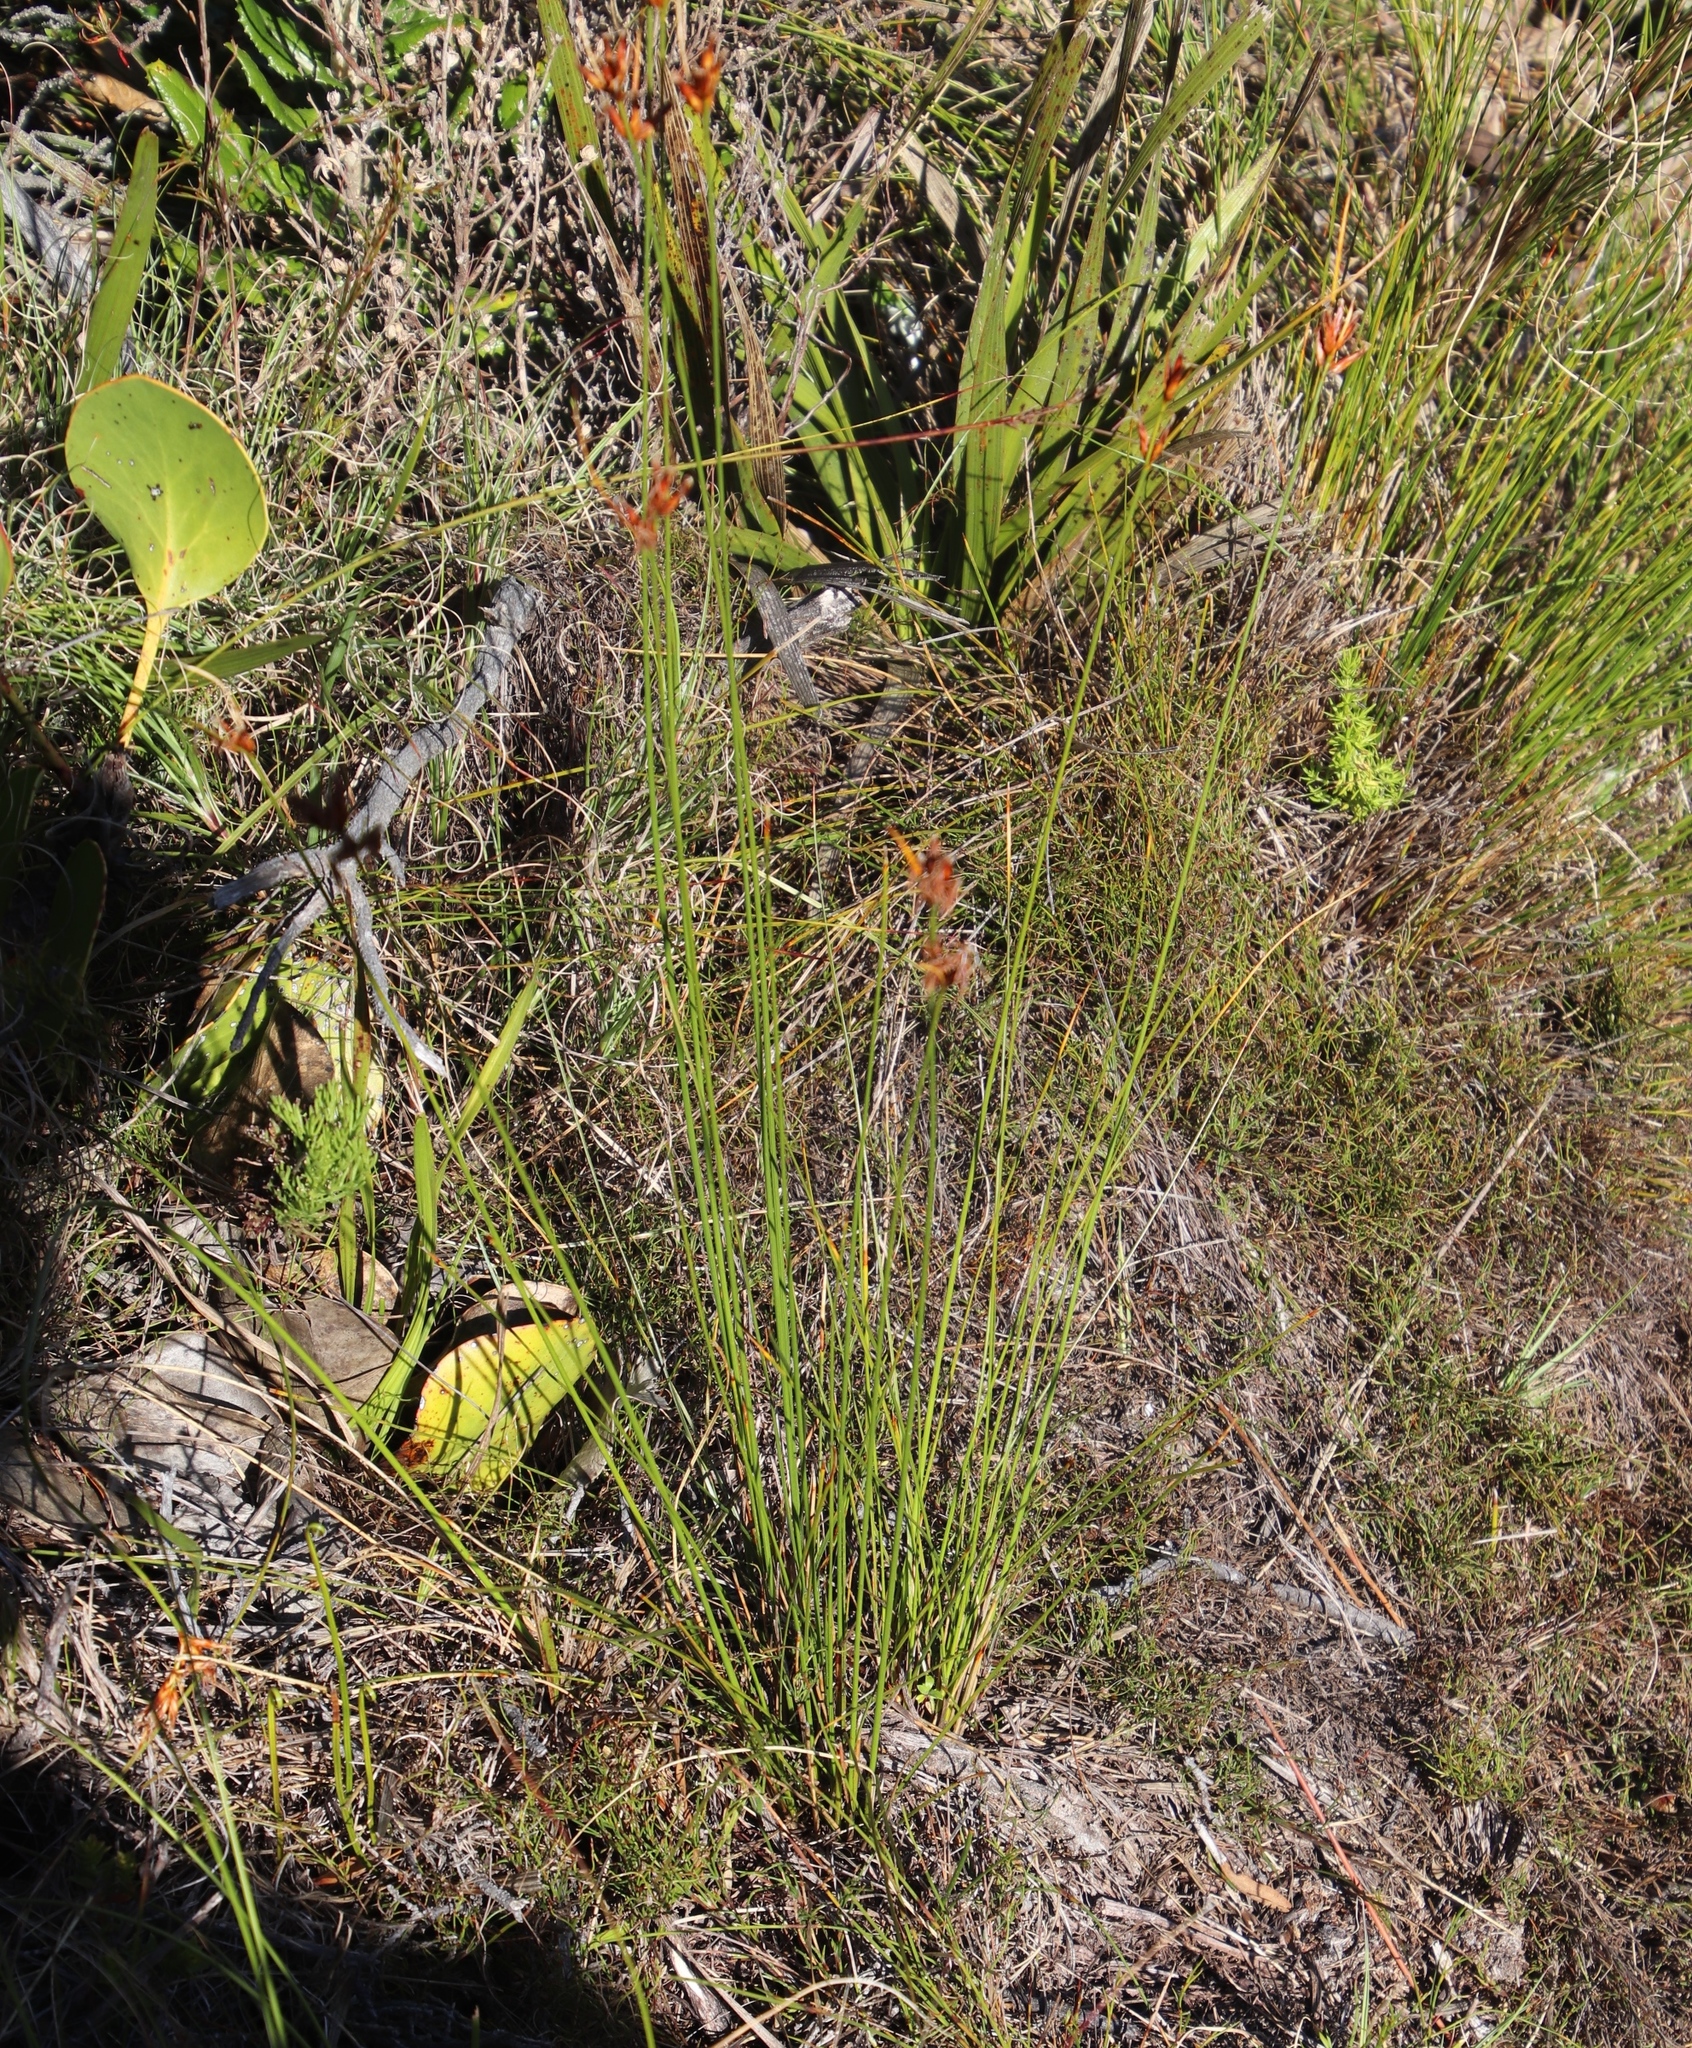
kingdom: Plantae
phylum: Tracheophyta
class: Liliopsida
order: Poales
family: Cyperaceae
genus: Schoenus
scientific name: Schoenus compar
